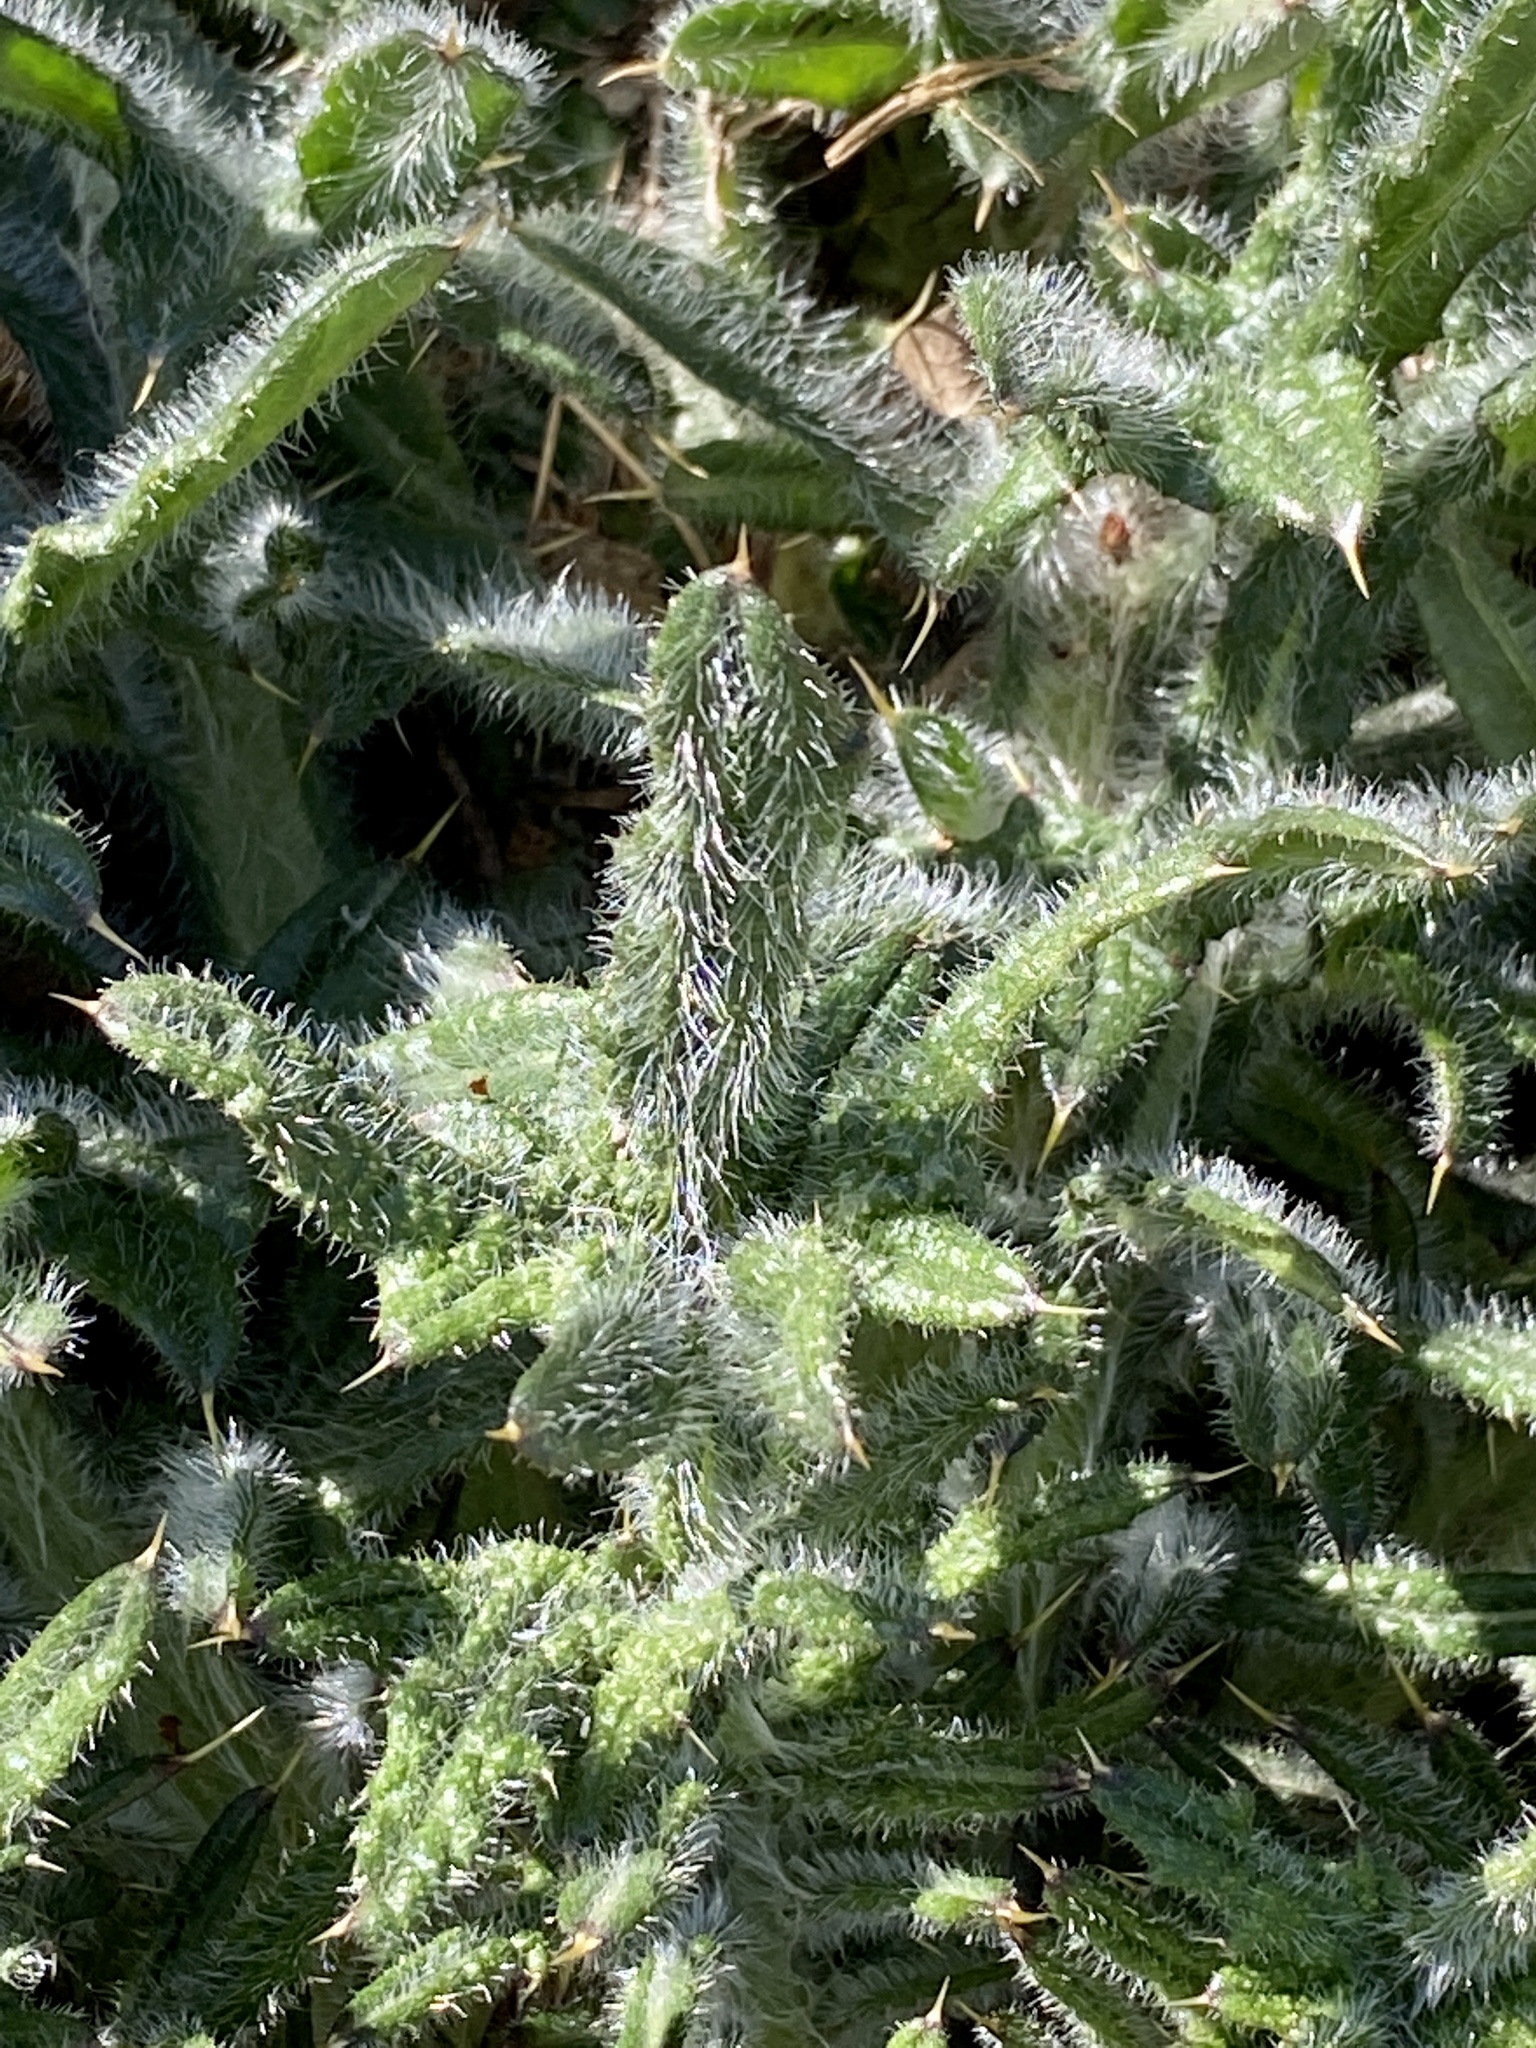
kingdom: Plantae
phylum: Tracheophyta
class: Magnoliopsida
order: Asterales
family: Asteraceae
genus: Cirsium
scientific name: Cirsium vulgare
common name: Bull thistle
